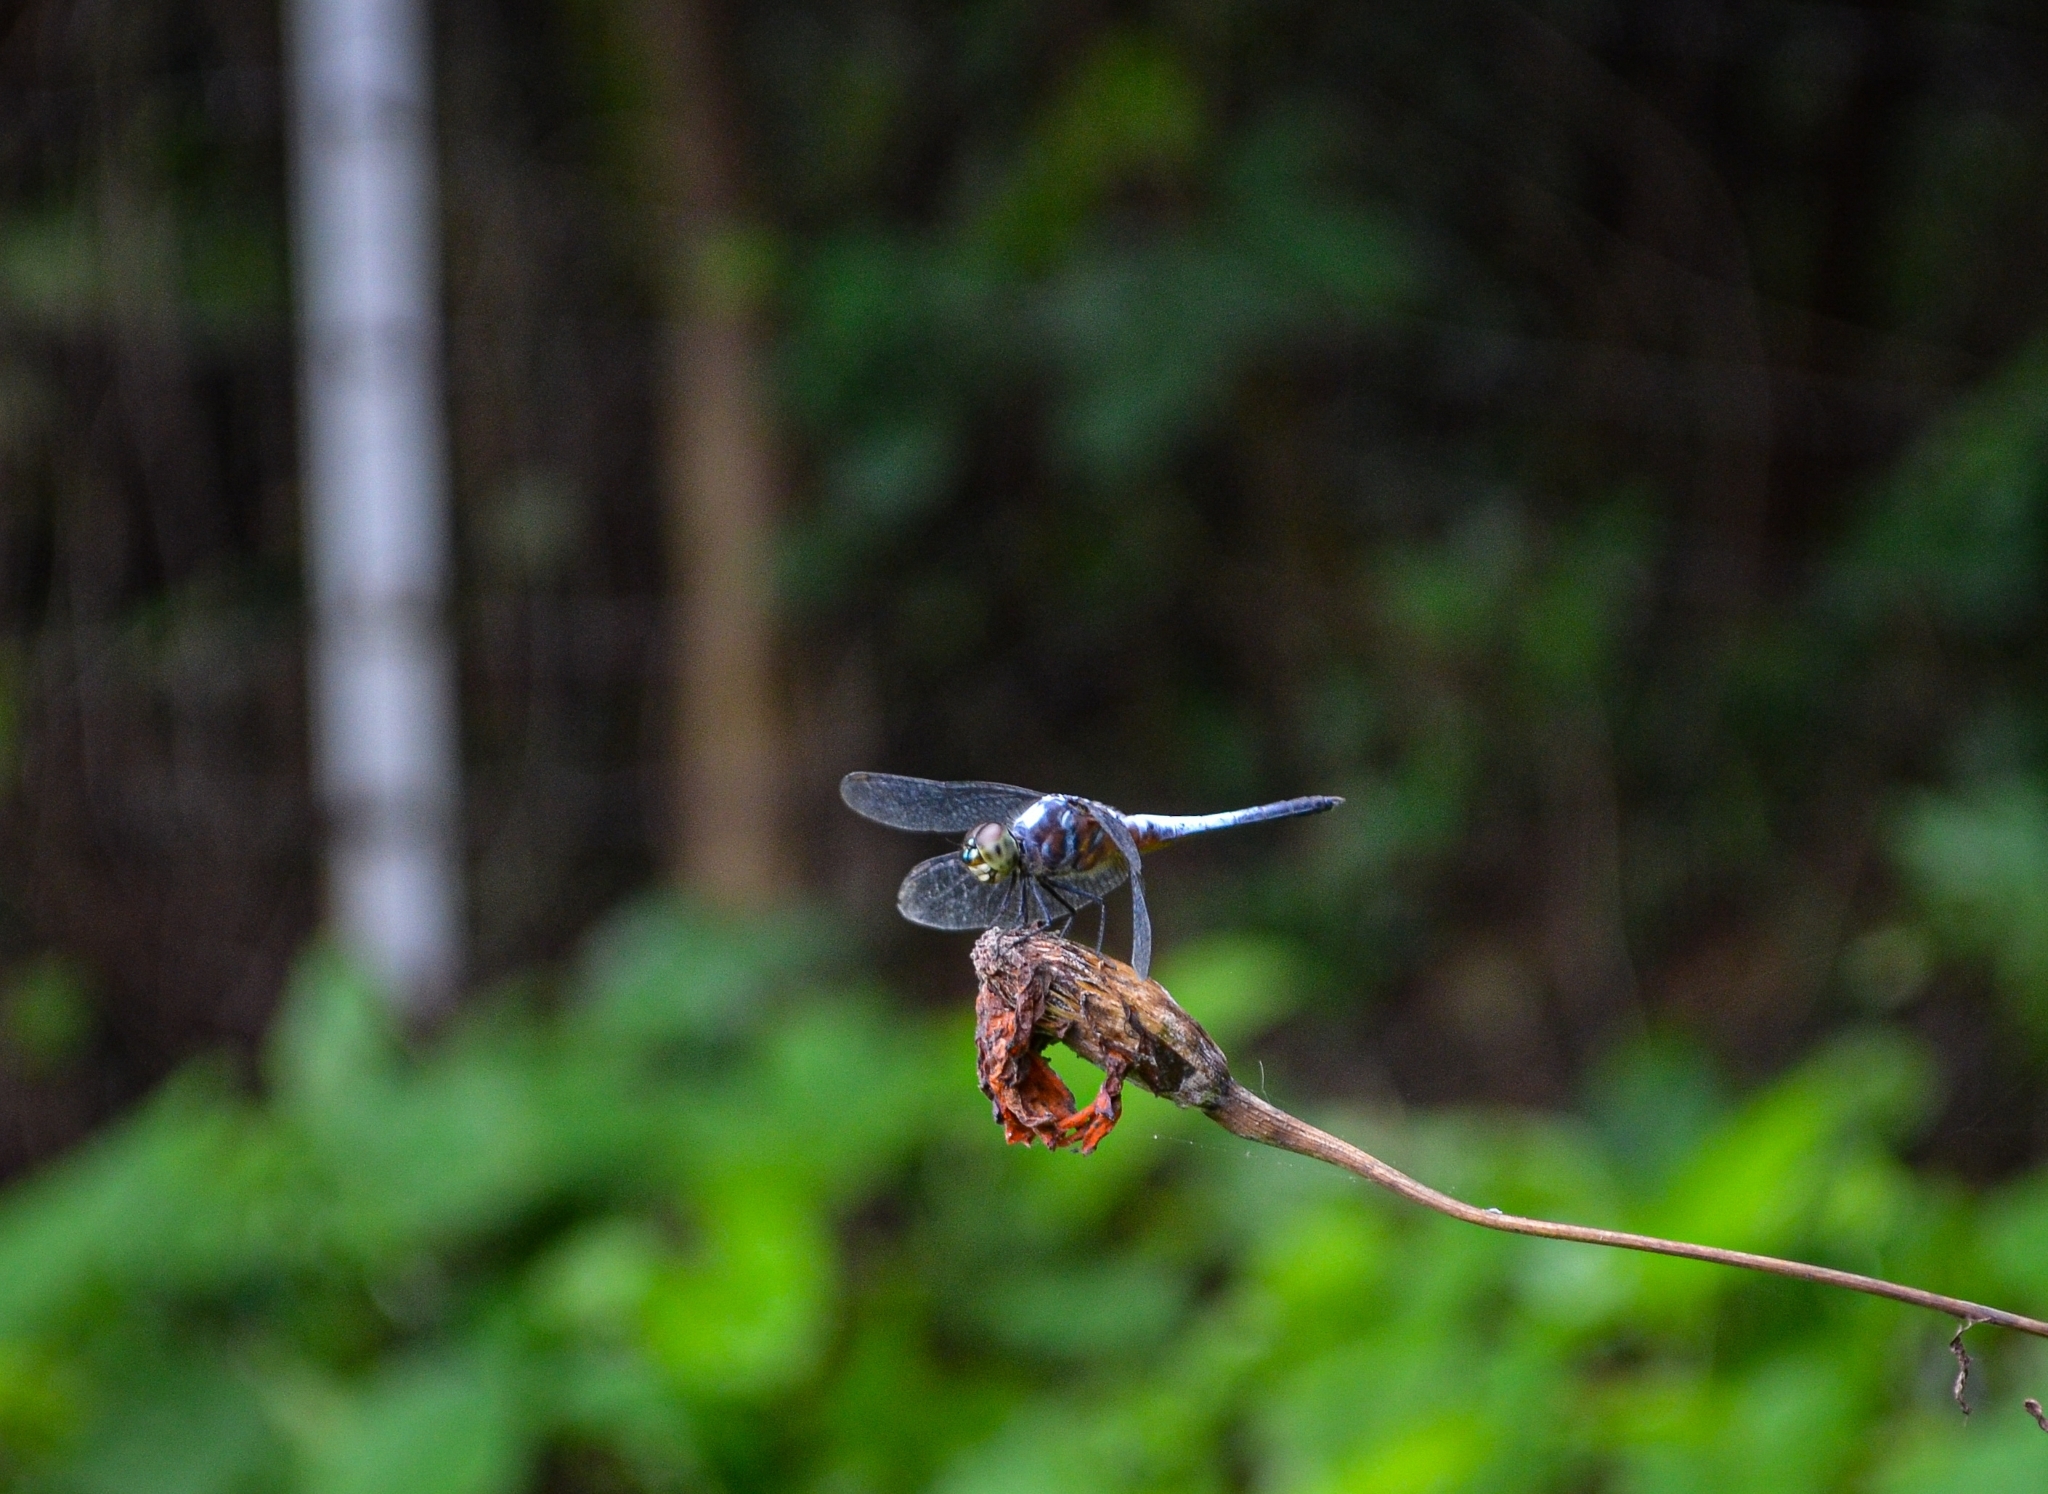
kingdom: Animalia
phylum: Arthropoda
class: Insecta
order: Odonata
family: Libellulidae
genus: Brachydiplax
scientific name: Brachydiplax chalybea
